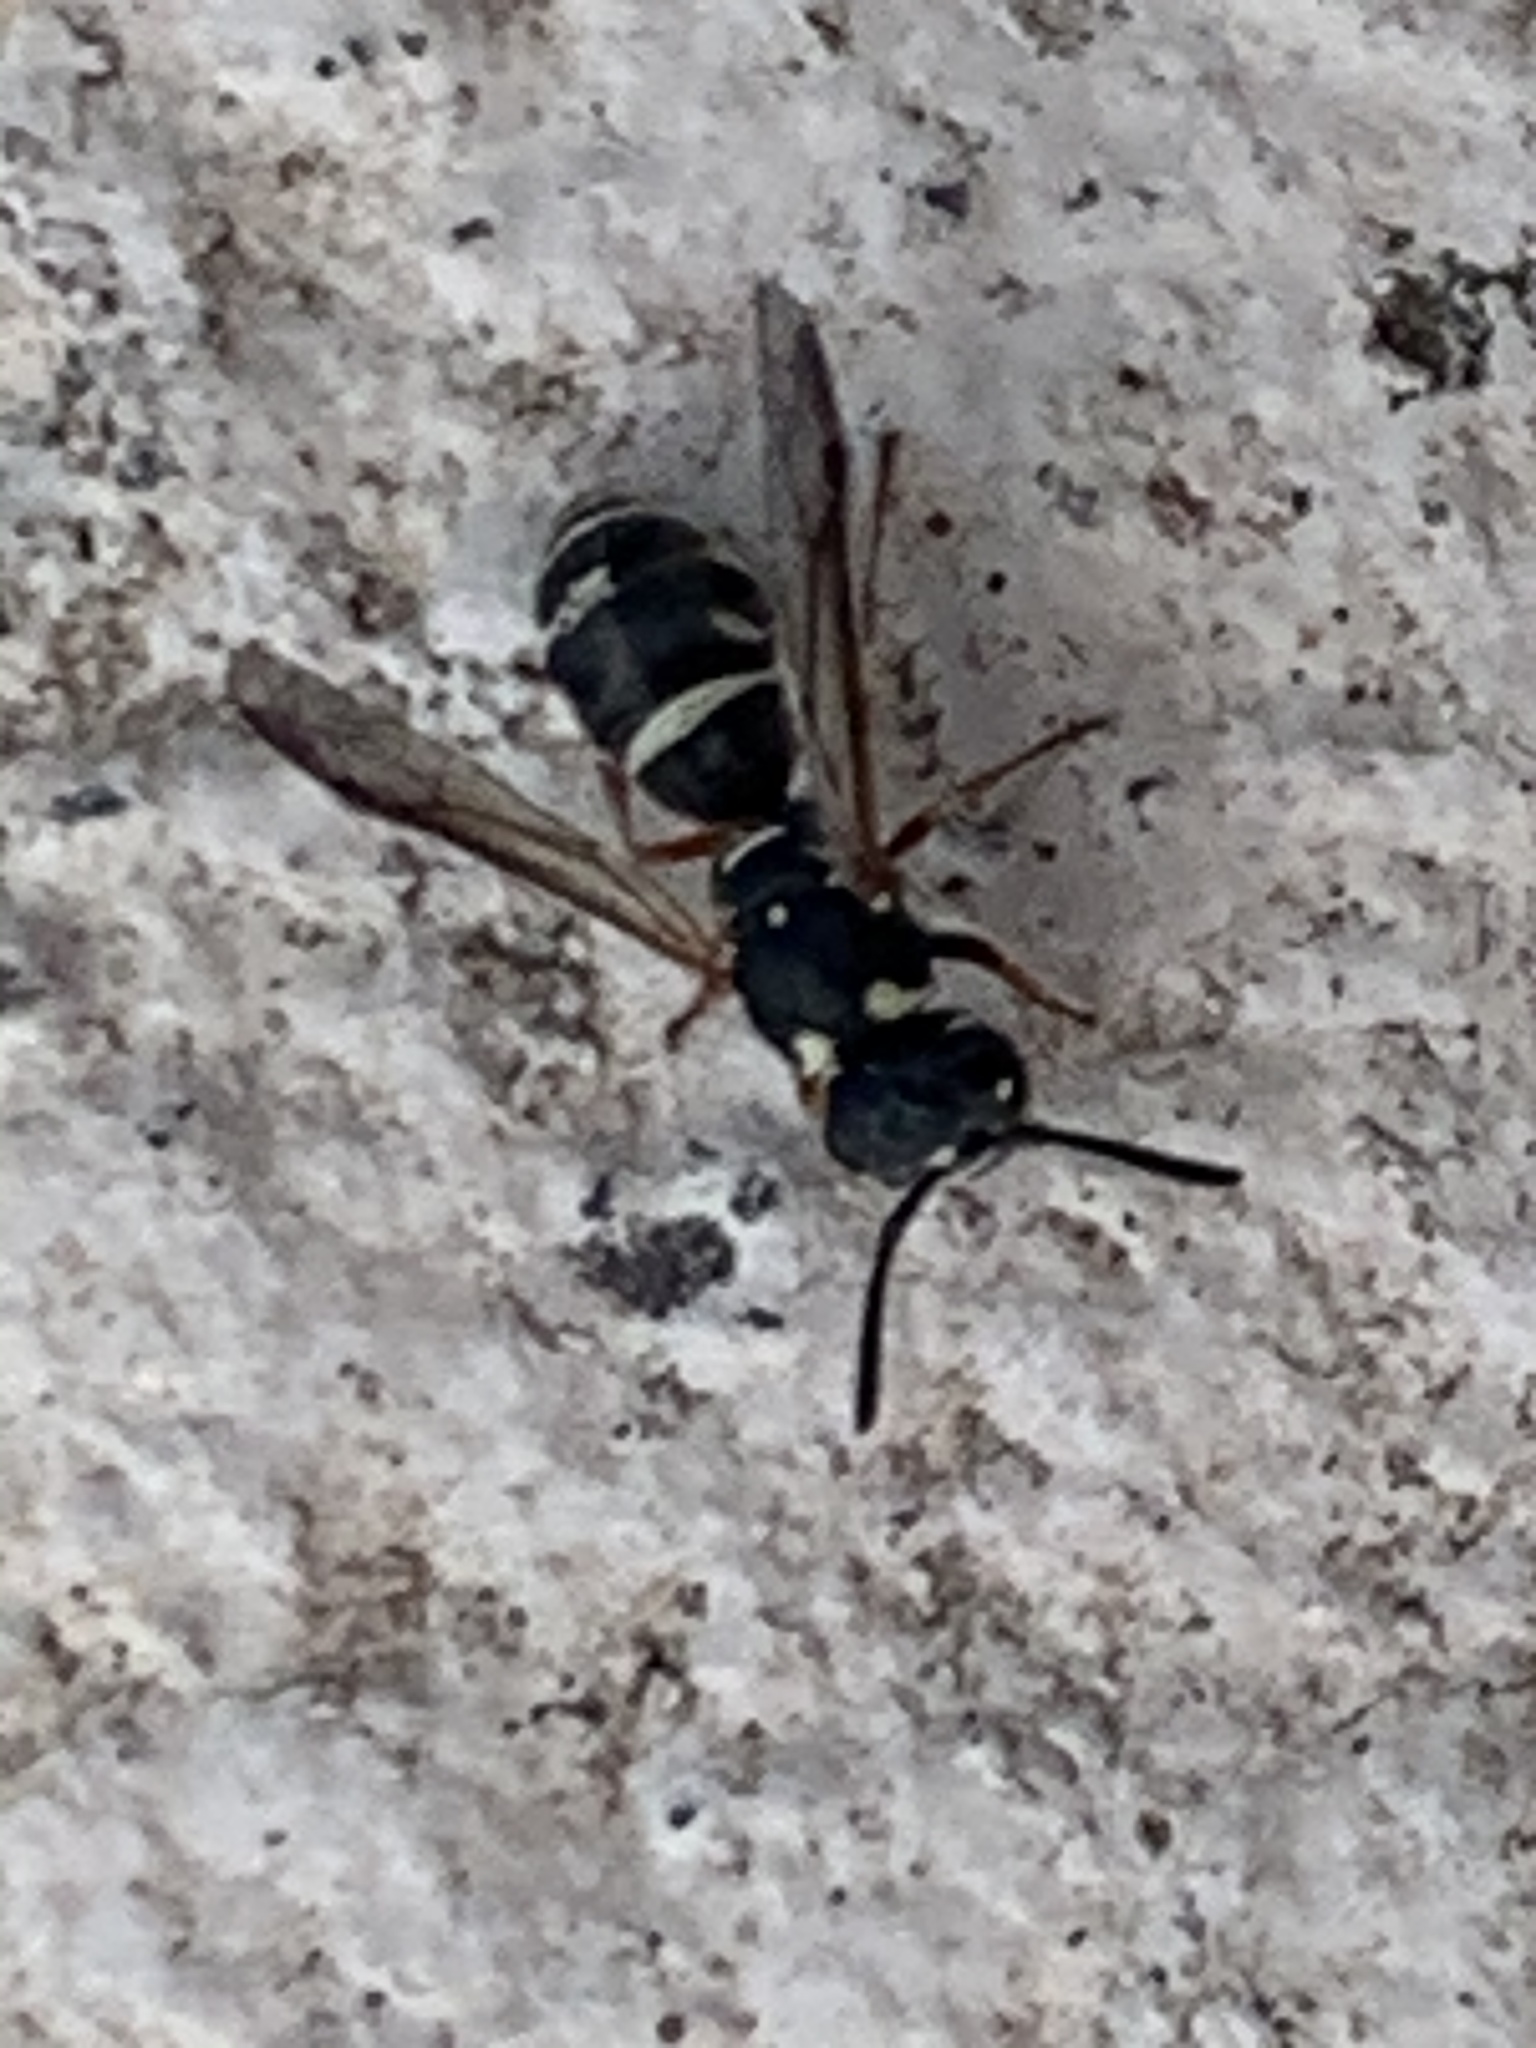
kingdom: Animalia
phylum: Arthropoda
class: Insecta
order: Hymenoptera
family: Eumenidae
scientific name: Eumenidae
